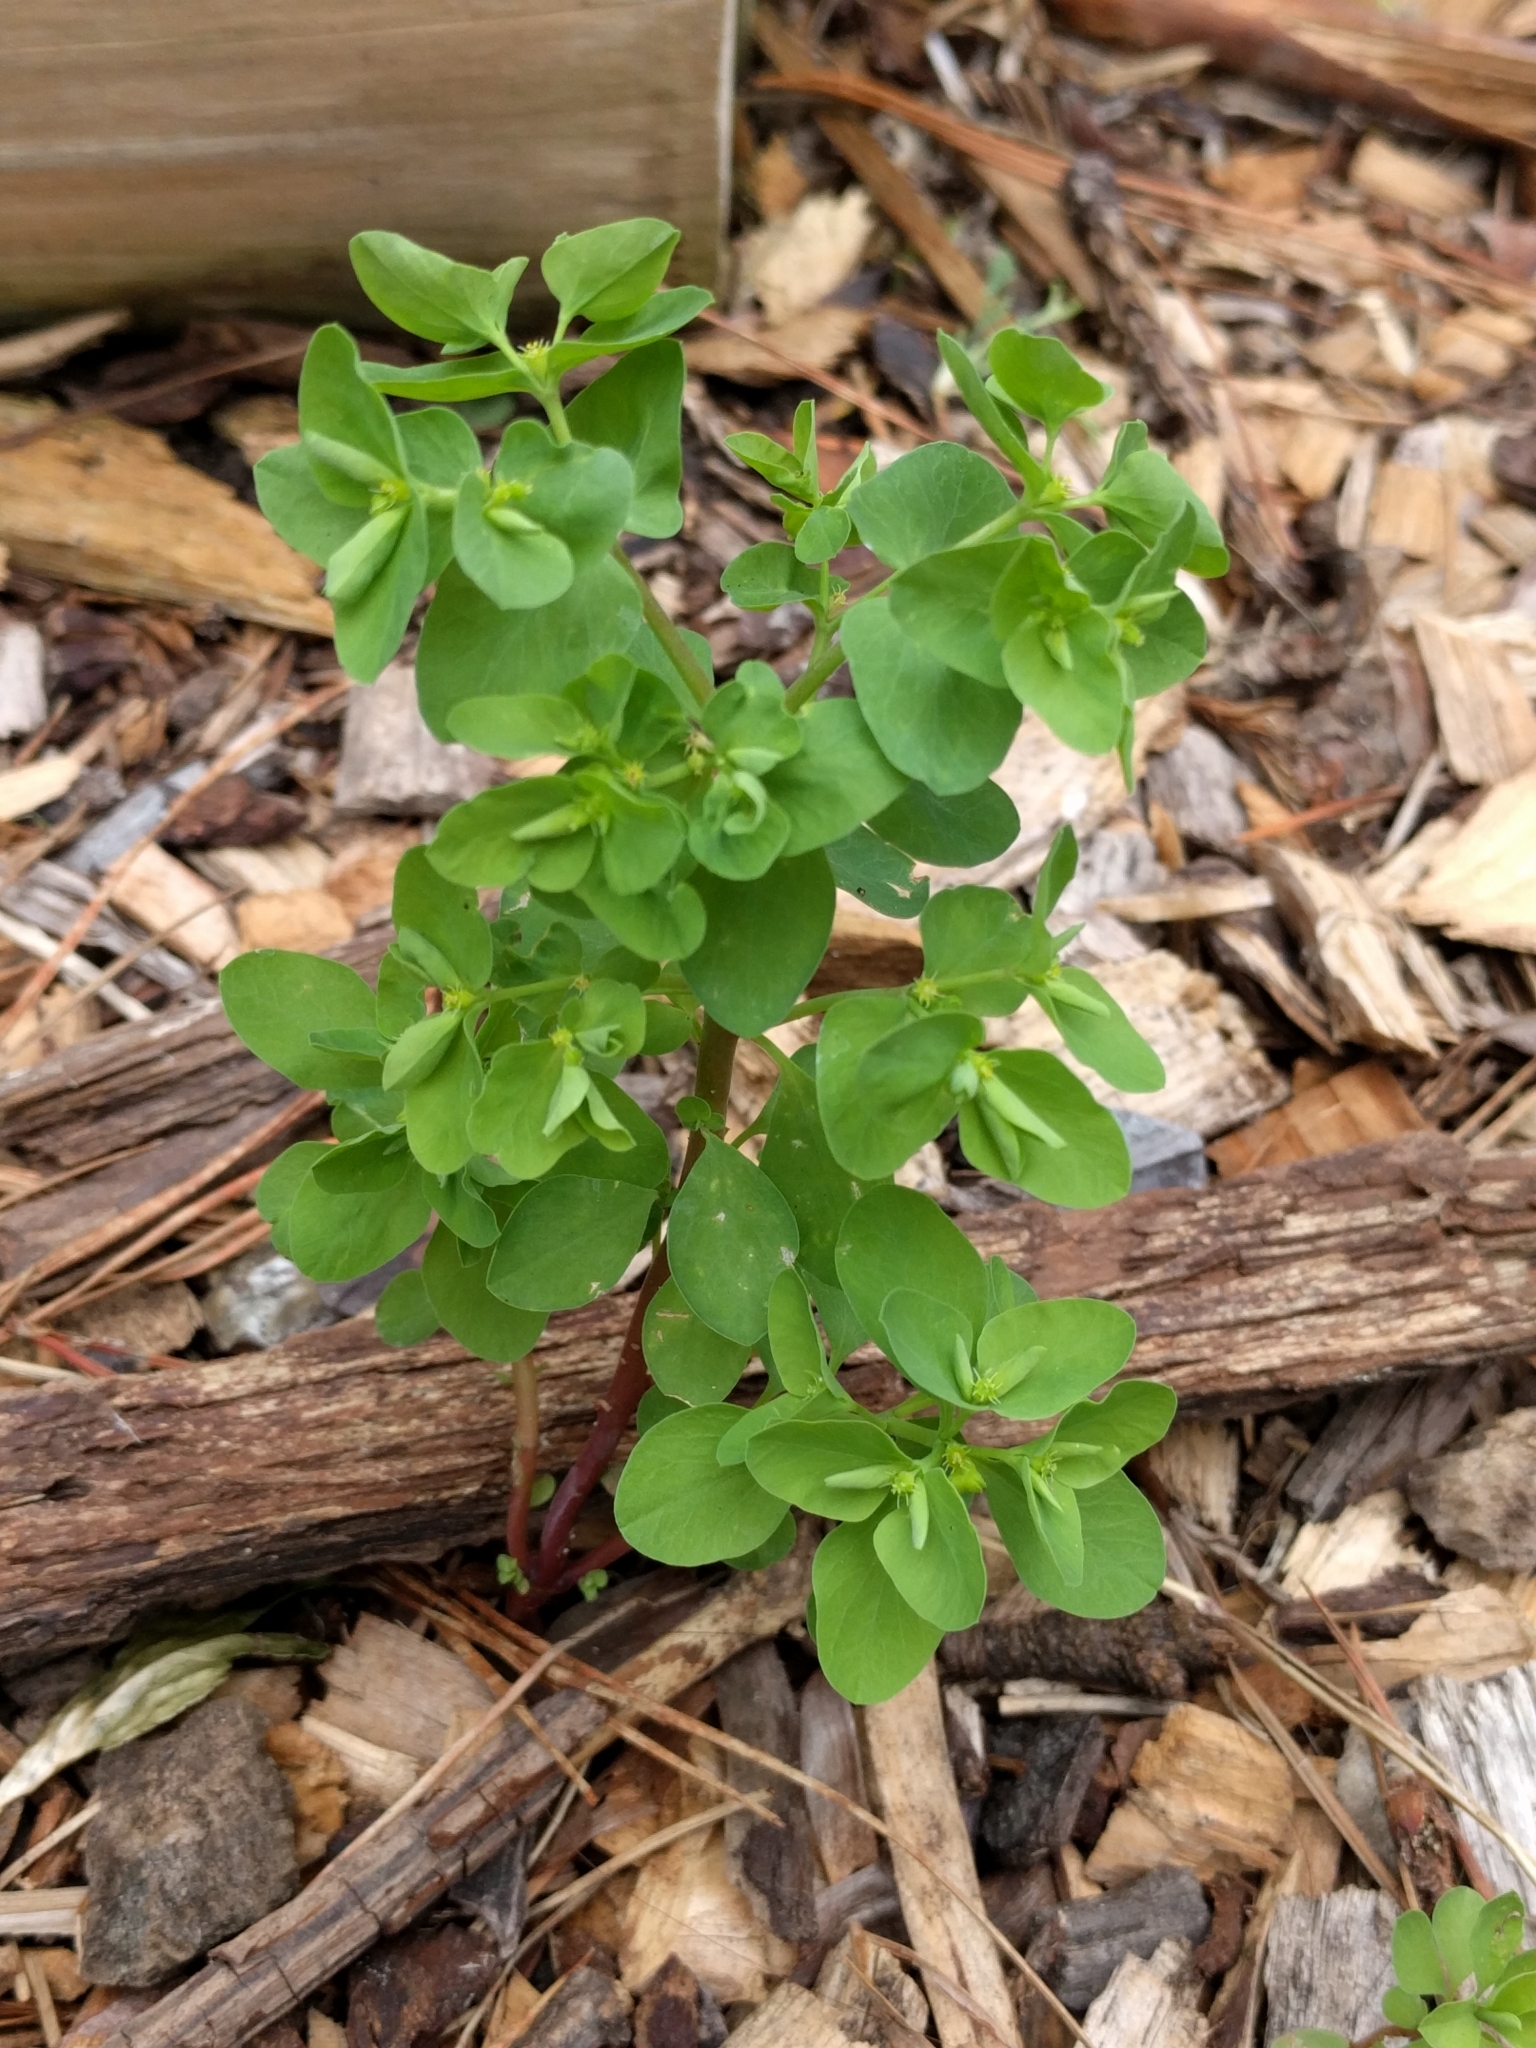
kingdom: Plantae
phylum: Tracheophyta
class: Magnoliopsida
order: Malpighiales
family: Euphorbiaceae
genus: Euphorbia
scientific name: Euphorbia peplus
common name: Petty spurge
